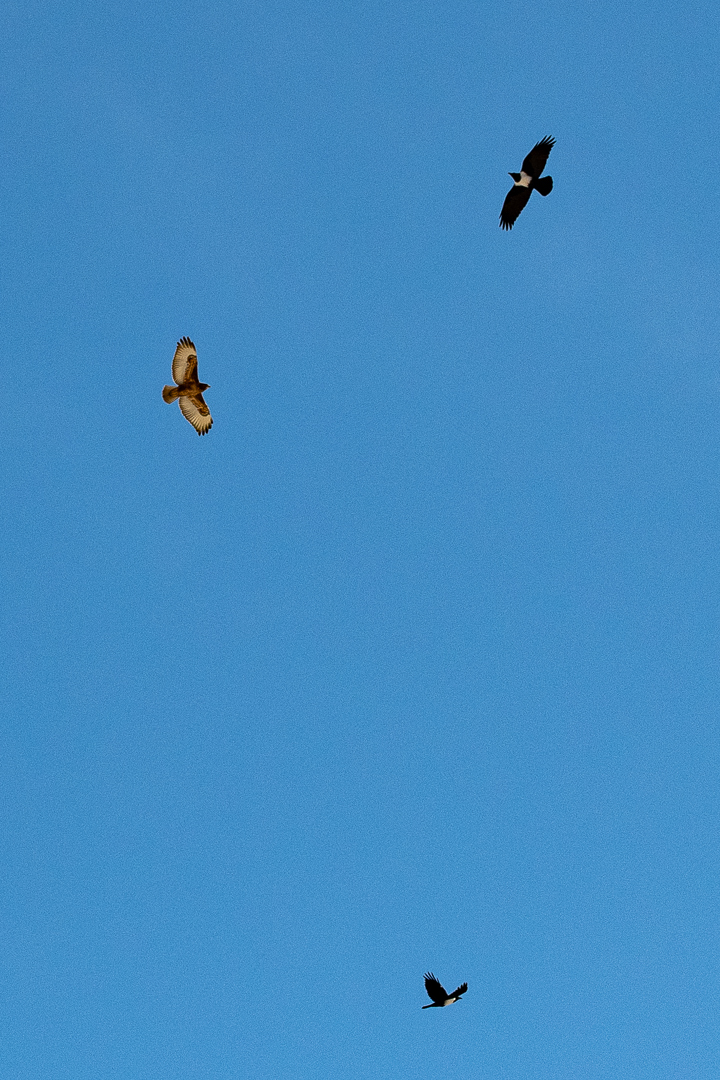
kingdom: Animalia
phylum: Chordata
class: Aves
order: Accipitriformes
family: Accipitridae
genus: Buteo
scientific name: Buteo rufofuscus
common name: Jackal buzzard
